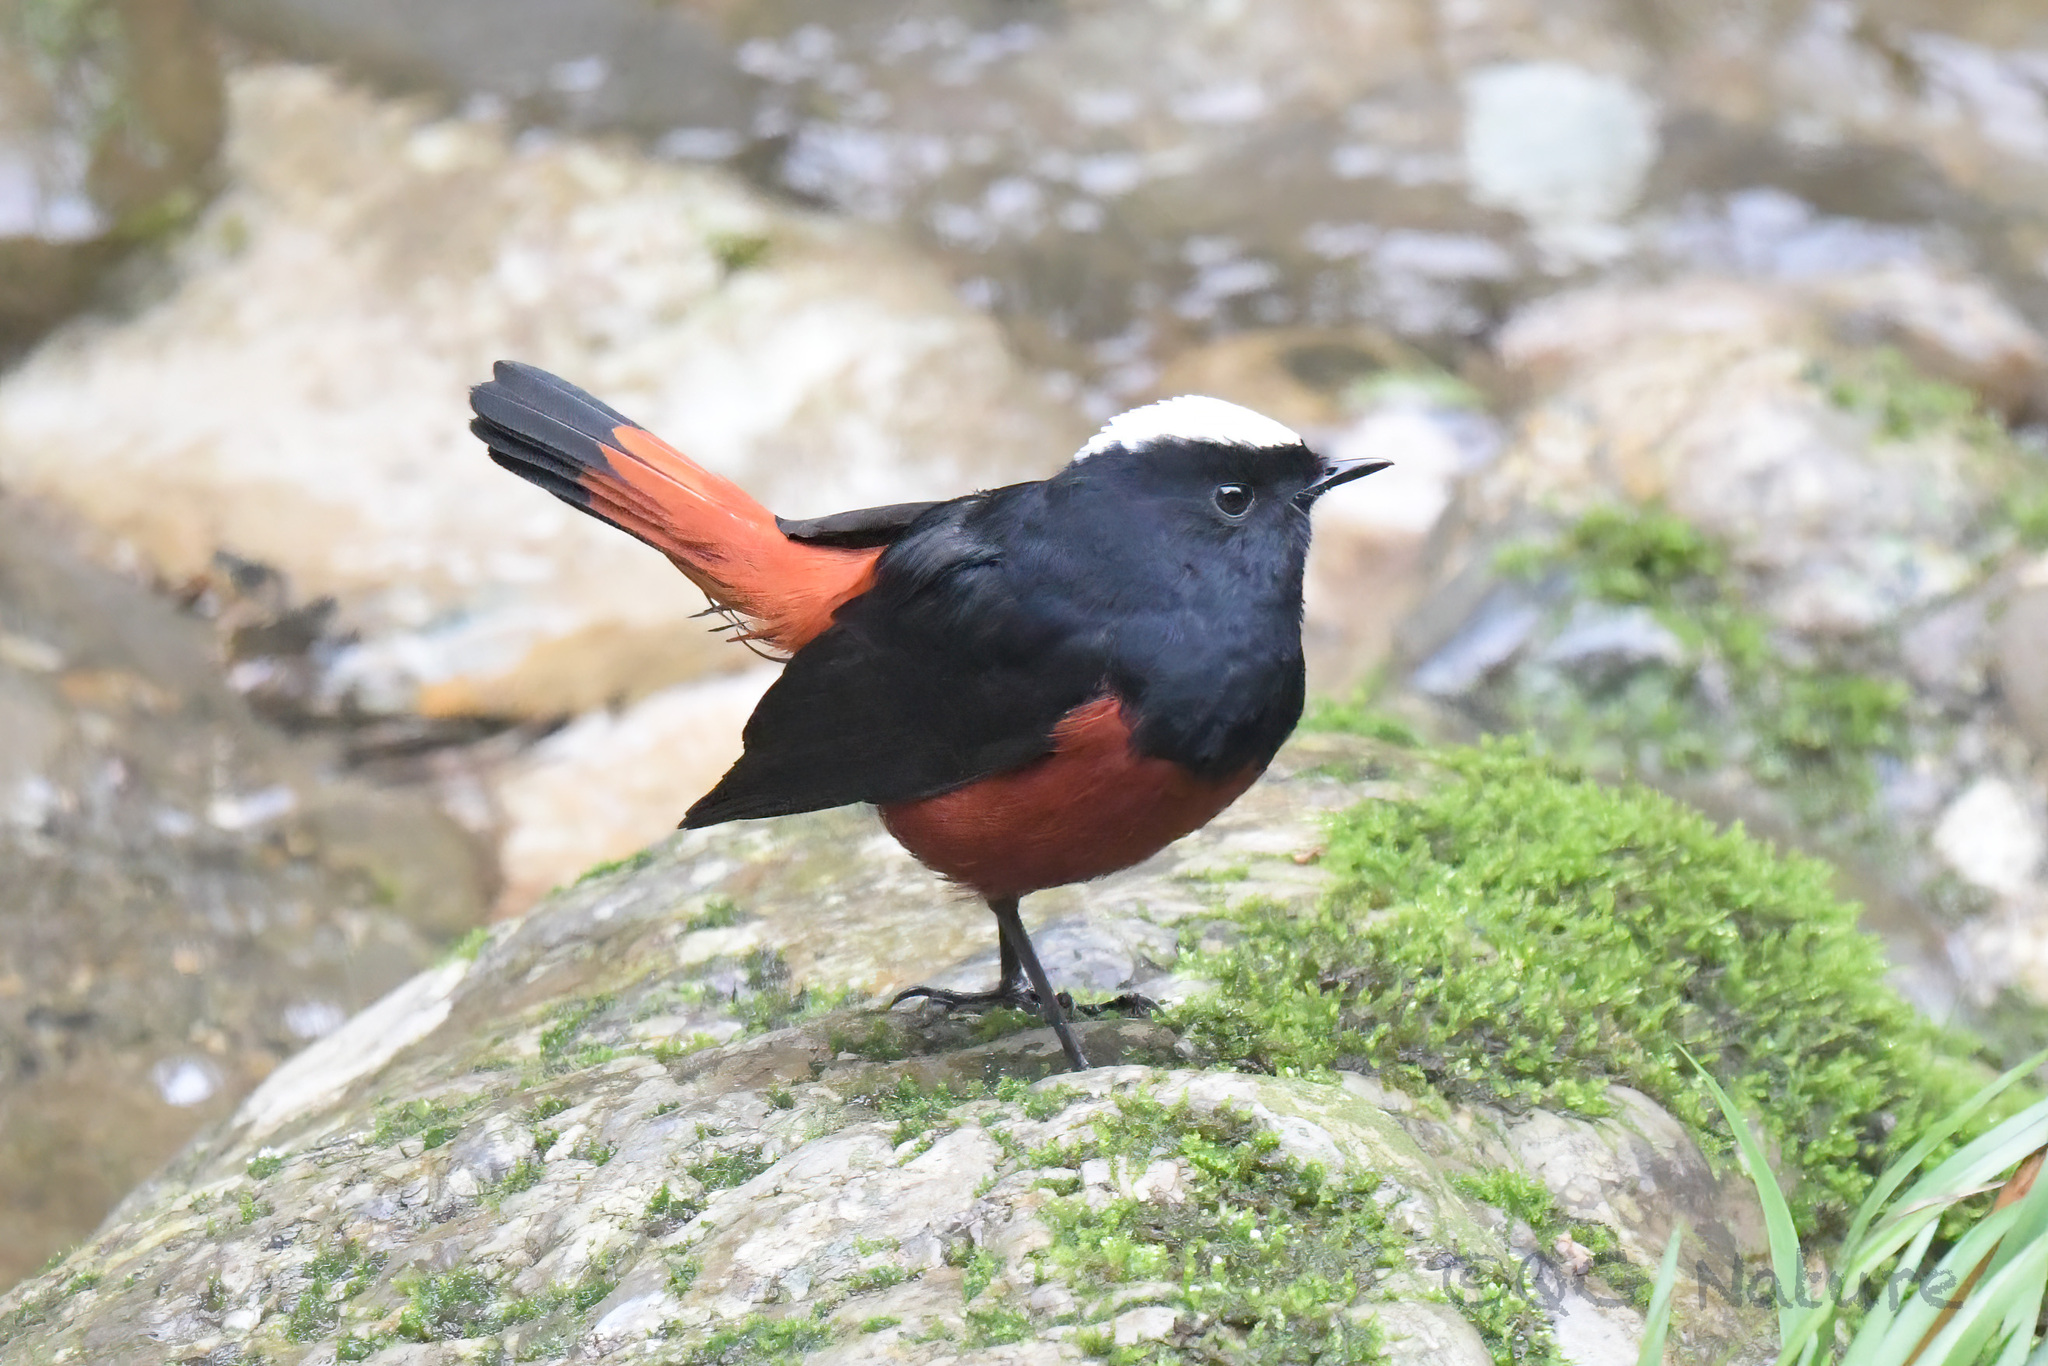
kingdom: Animalia
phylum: Chordata
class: Aves
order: Passeriformes
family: Muscicapidae
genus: Chaimarrornis
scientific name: Chaimarrornis leucocephalus
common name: White-capped redstart
